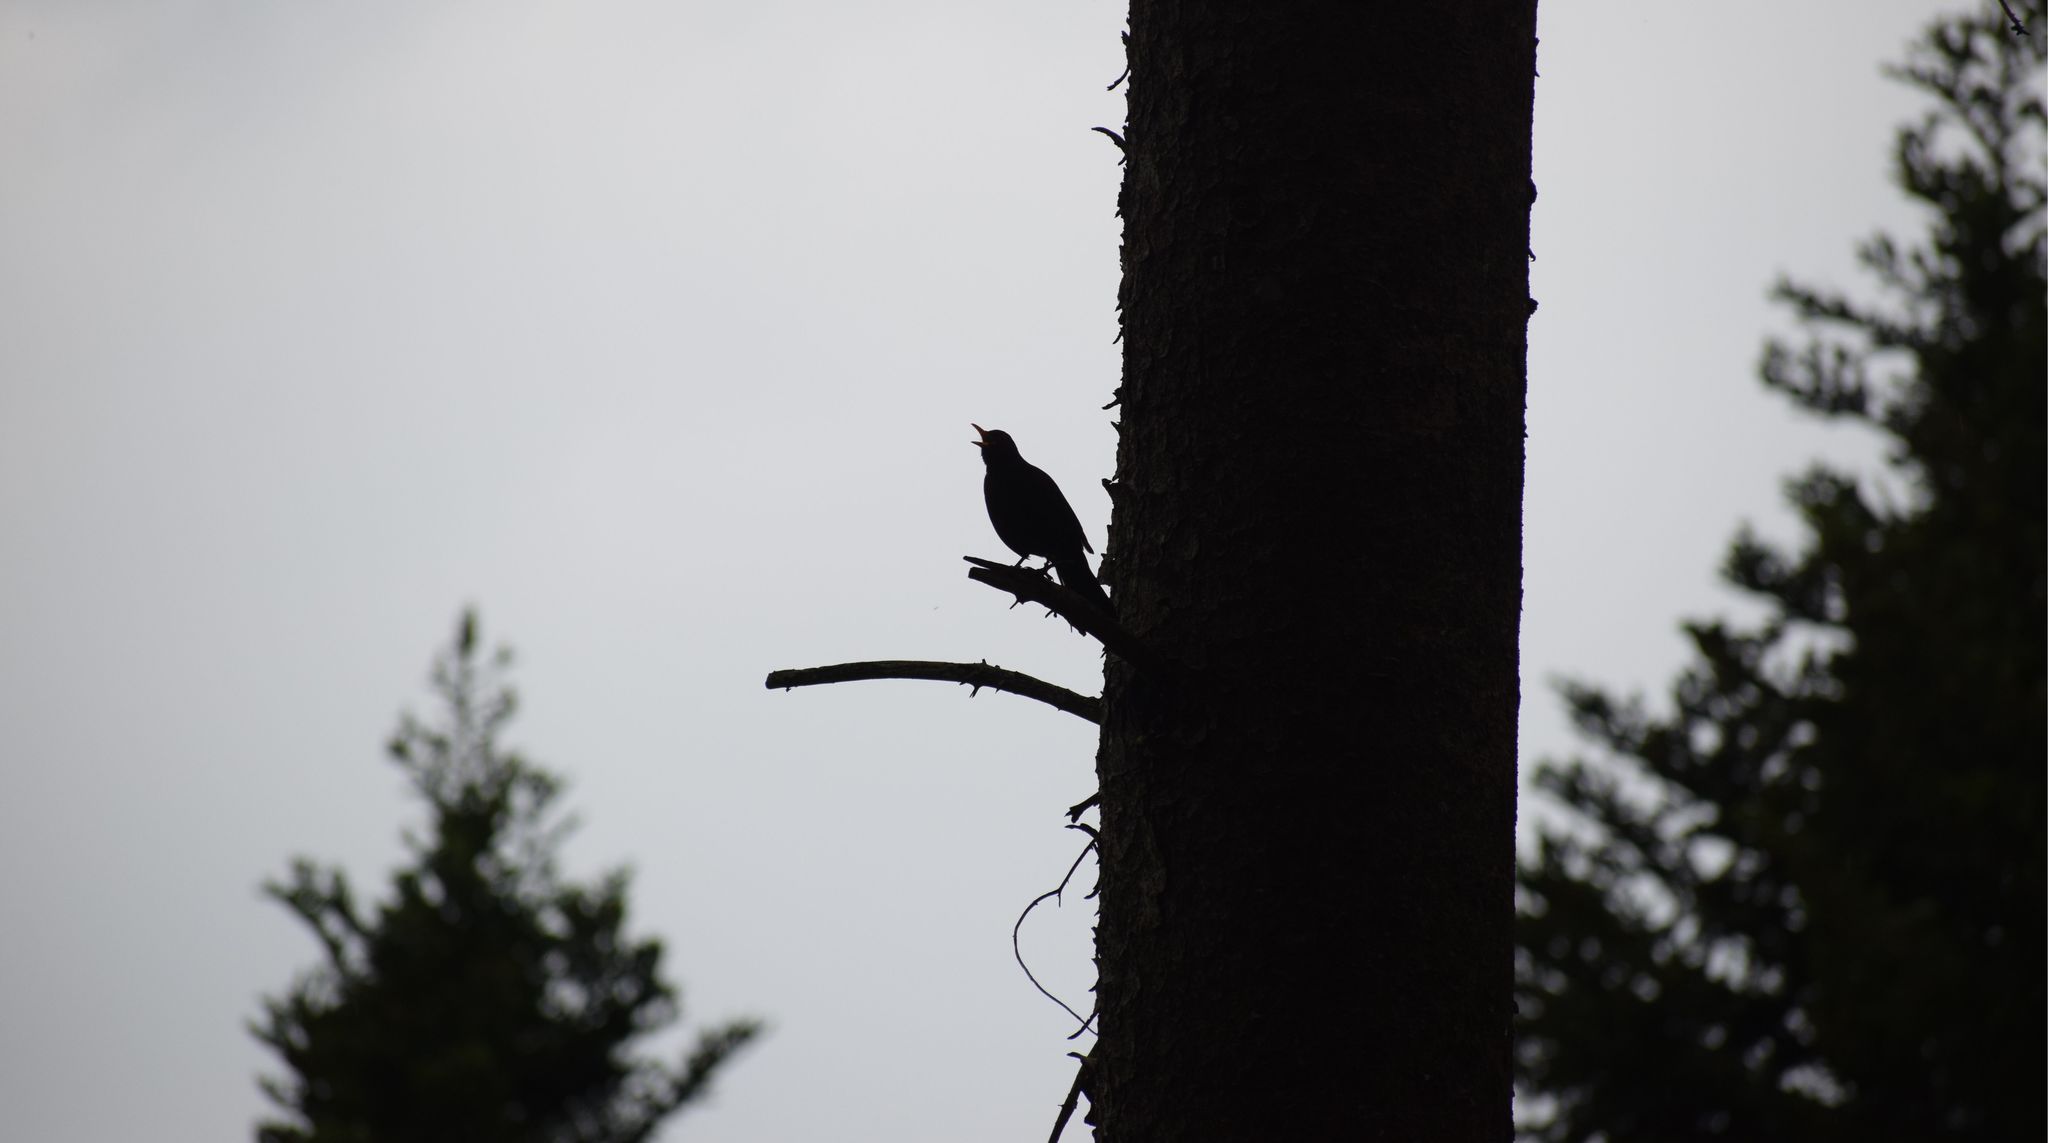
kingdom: Animalia
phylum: Chordata
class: Aves
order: Passeriformes
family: Turdidae
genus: Turdus
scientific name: Turdus merula
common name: Common blackbird
